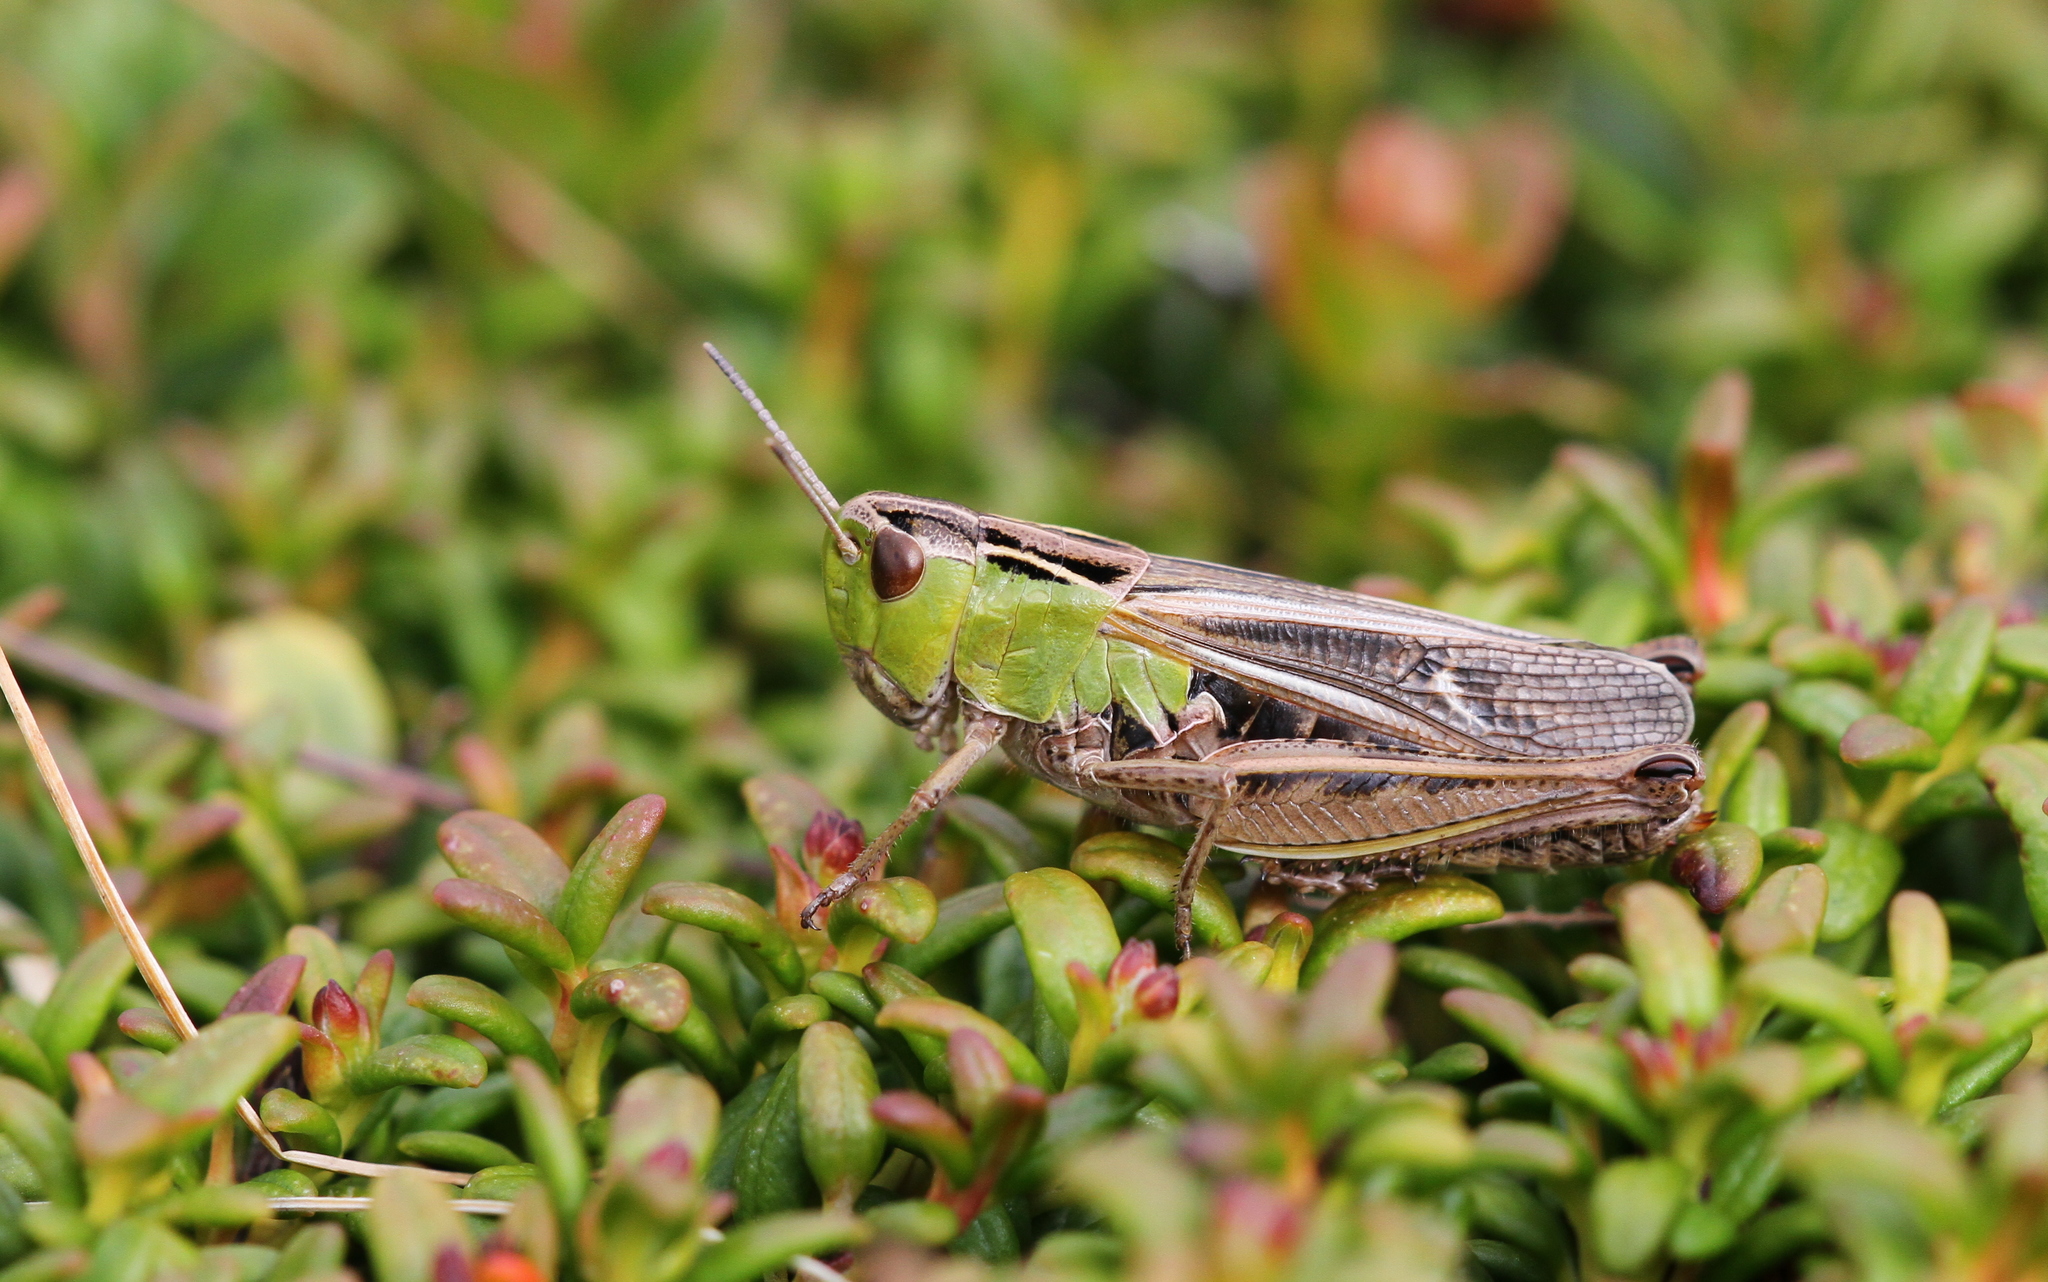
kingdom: Animalia
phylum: Arthropoda
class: Insecta
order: Orthoptera
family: Acrididae
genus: Stenobothrus
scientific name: Stenobothrus lineatus
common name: Stripe-winged grasshopper
